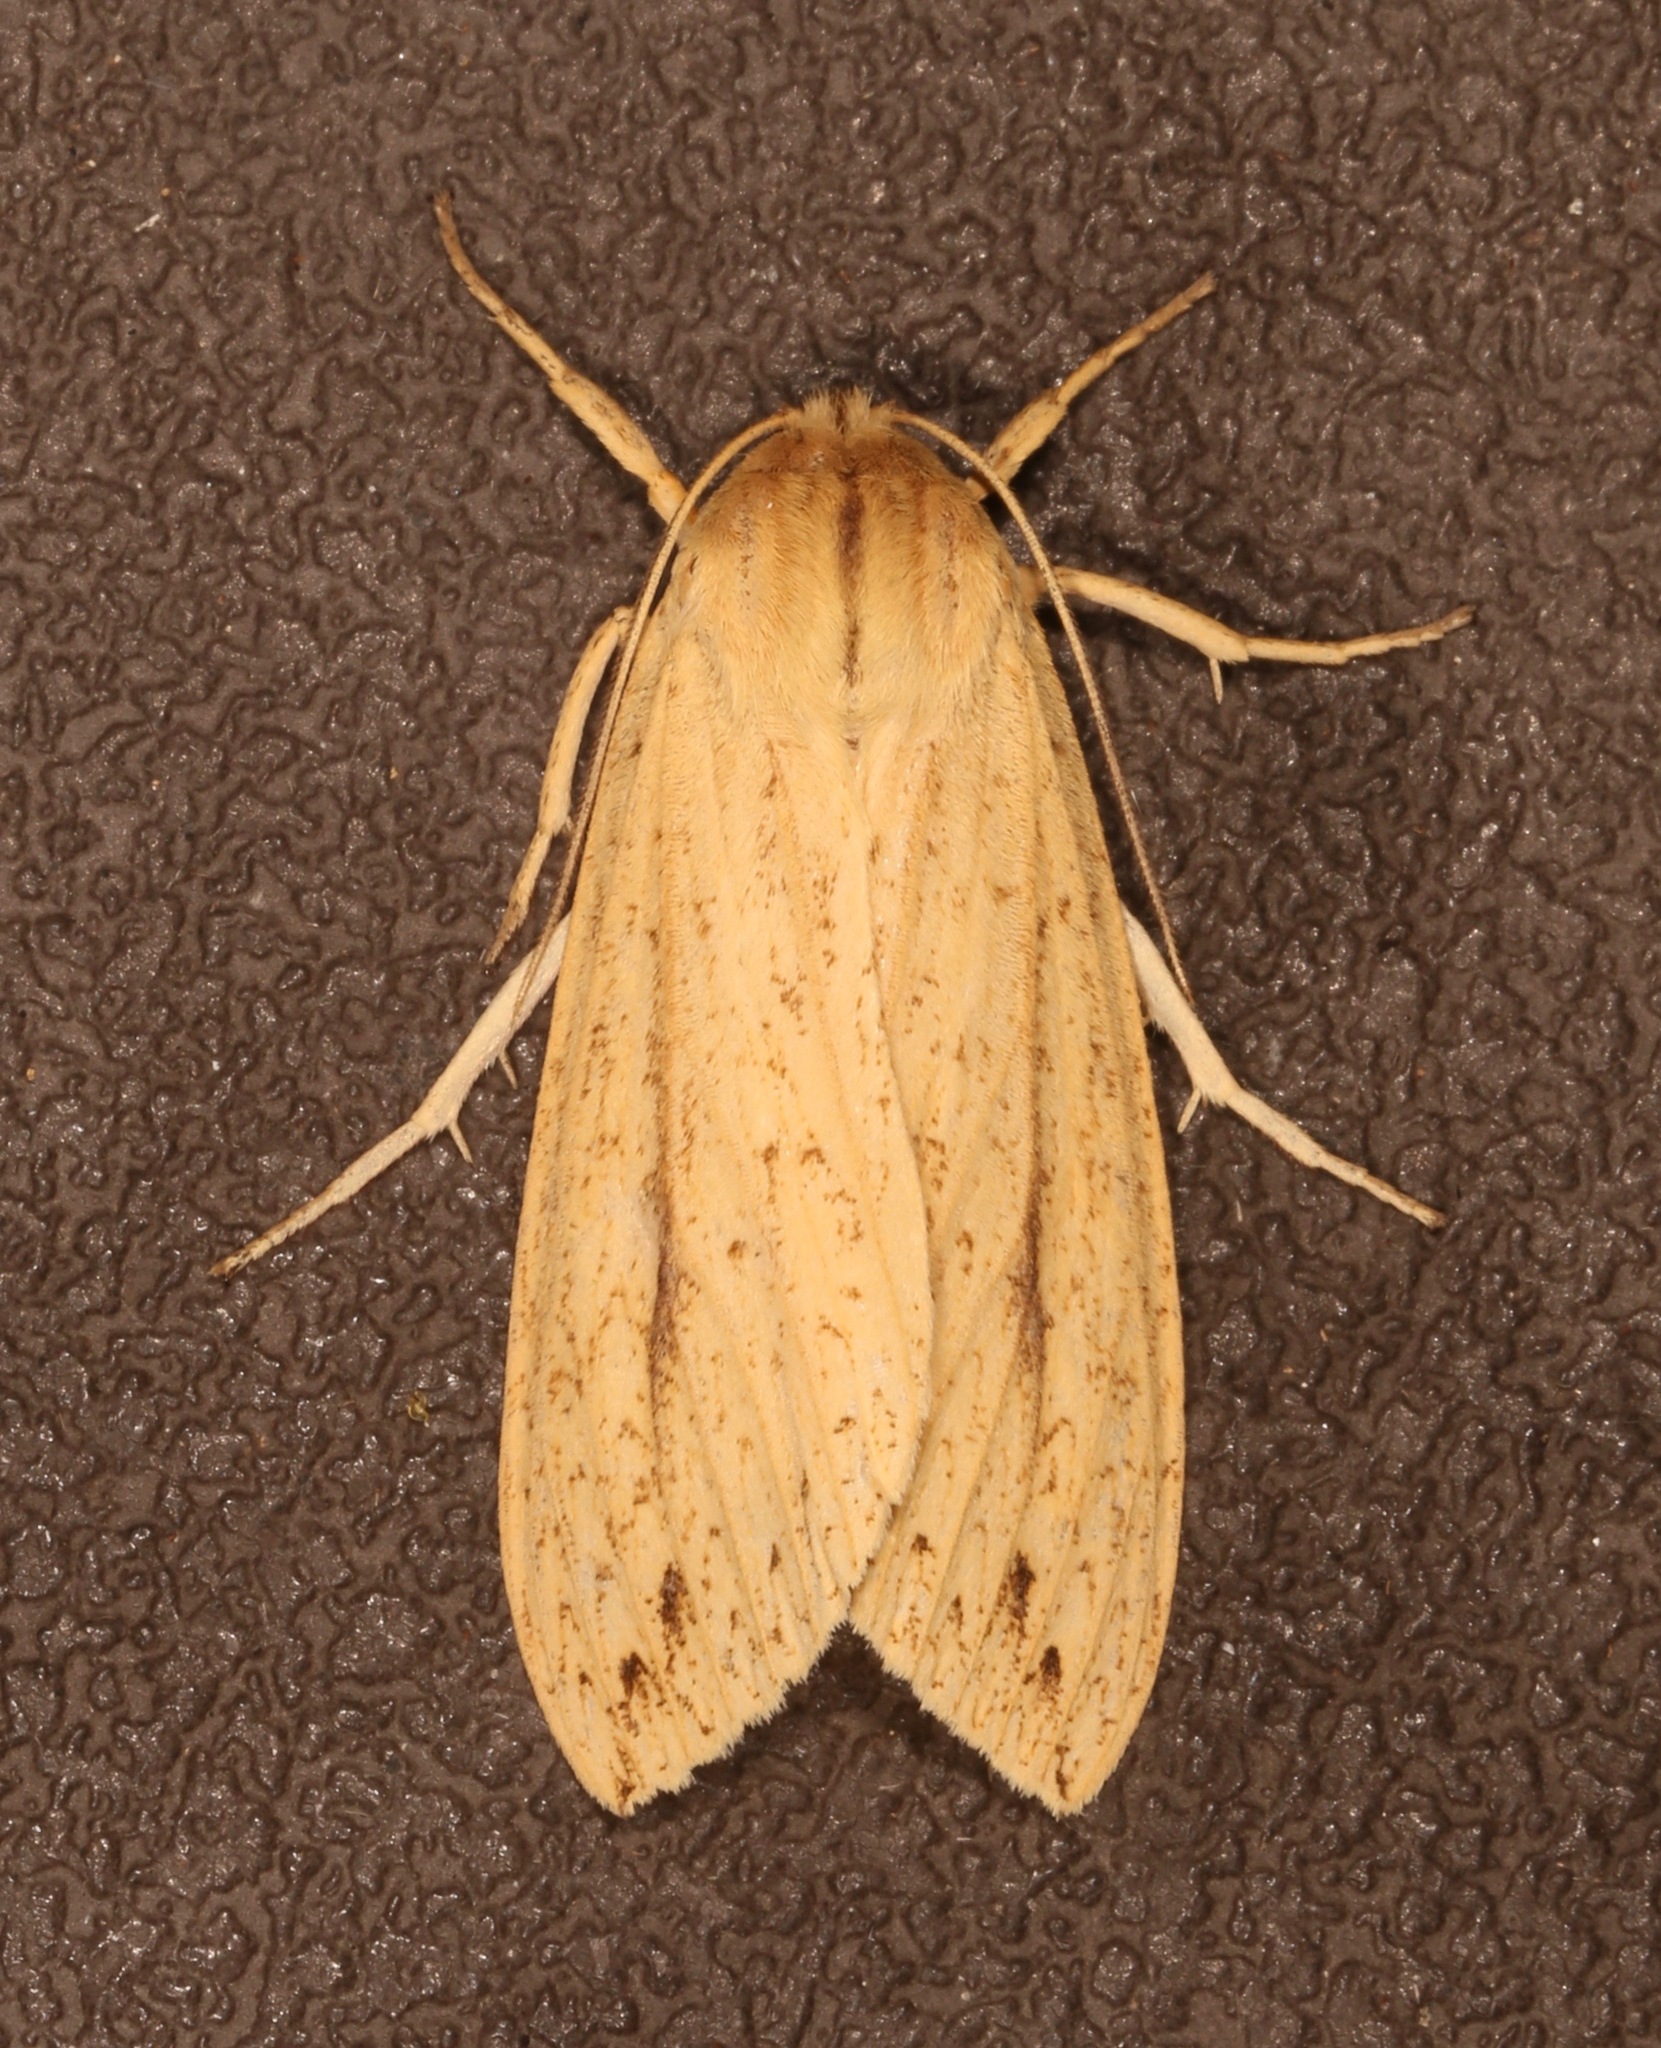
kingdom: Animalia
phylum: Arthropoda
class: Insecta
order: Lepidoptera
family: Erebidae
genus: Leucanopsis
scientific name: Leucanopsis longa
